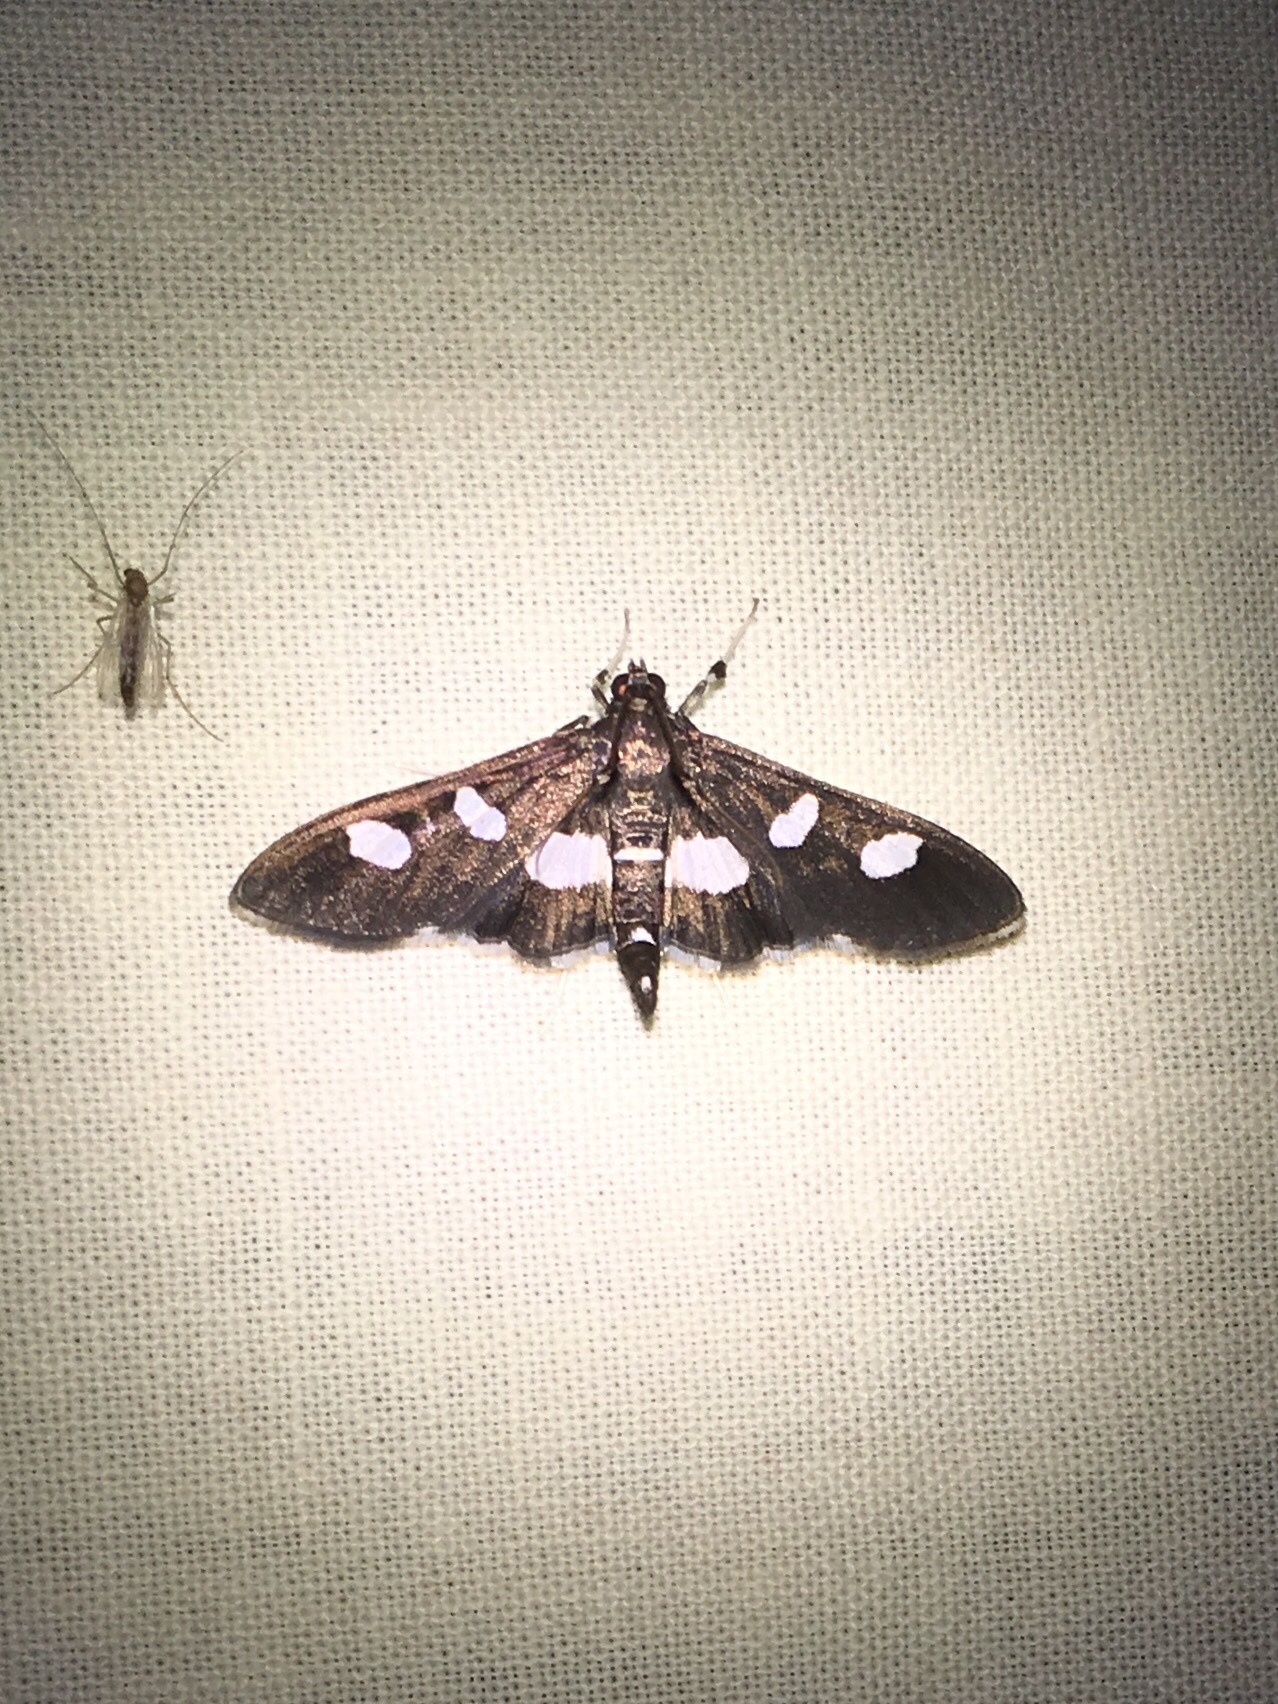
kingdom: Animalia
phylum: Arthropoda
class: Insecta
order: Lepidoptera
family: Crambidae
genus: Desmia
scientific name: Desmia
